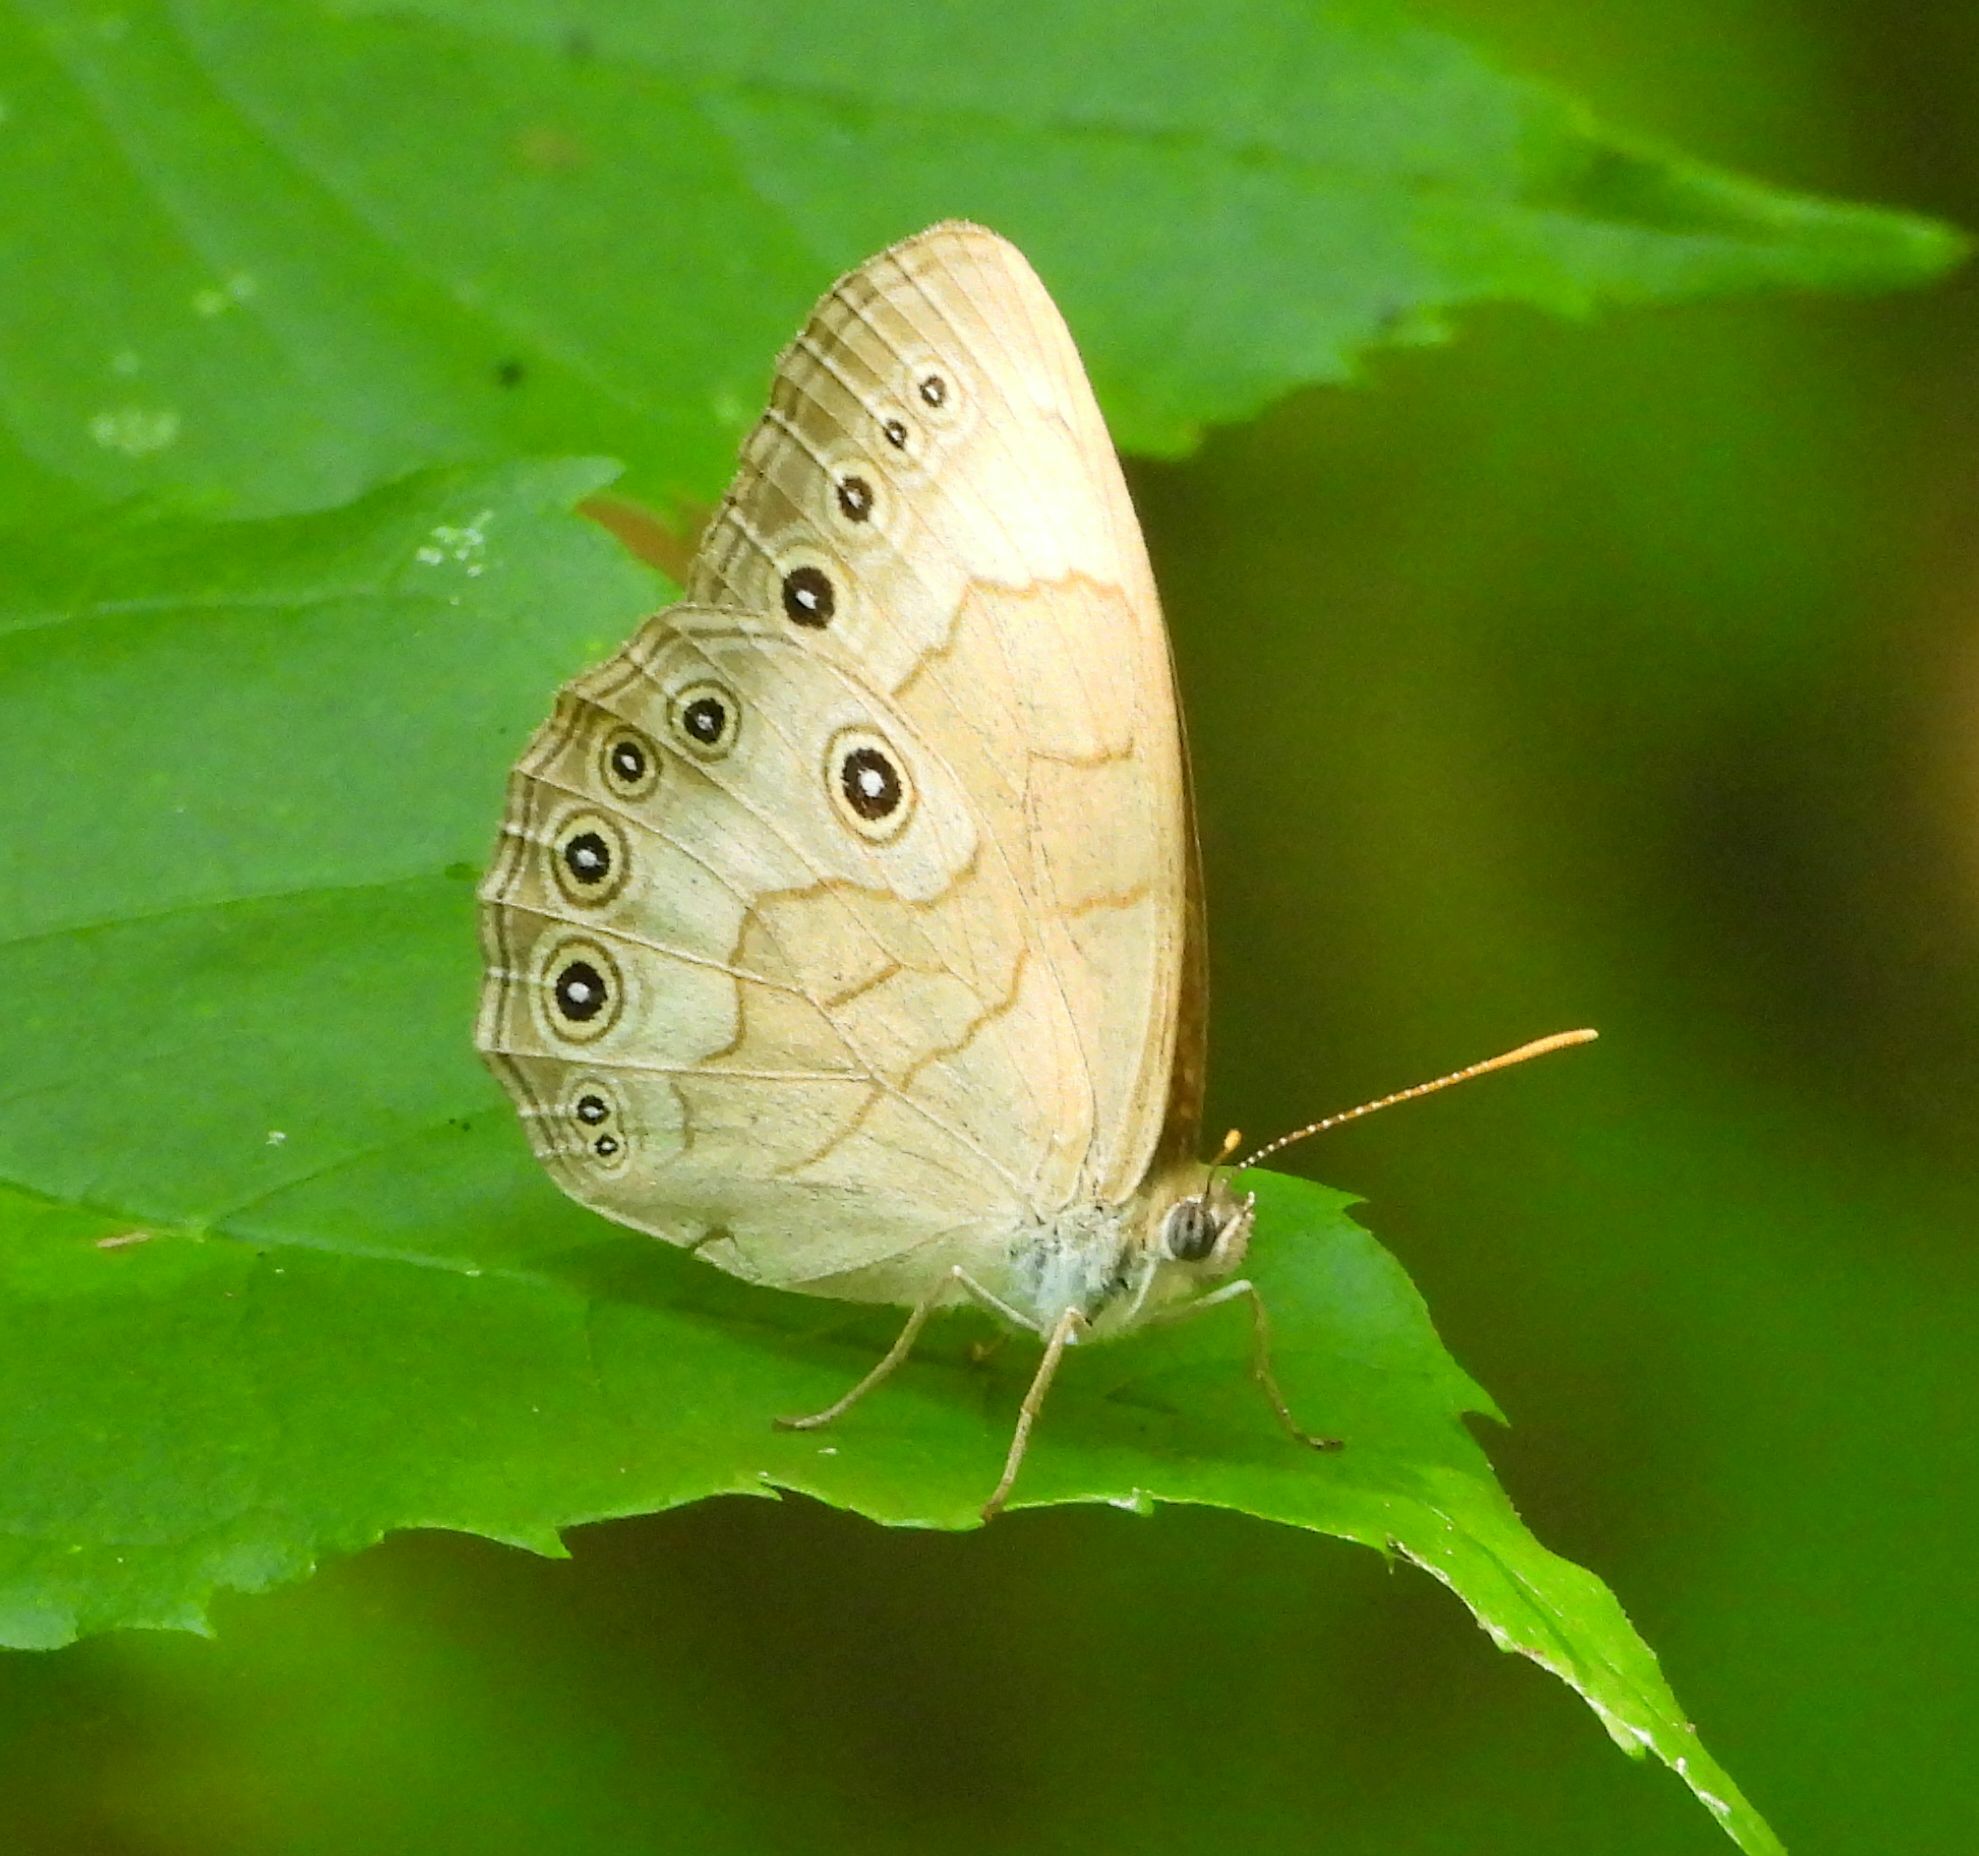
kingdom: Animalia
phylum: Arthropoda
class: Insecta
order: Lepidoptera
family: Nymphalidae
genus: Lethe
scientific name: Lethe eurydice
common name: Eyed brown
